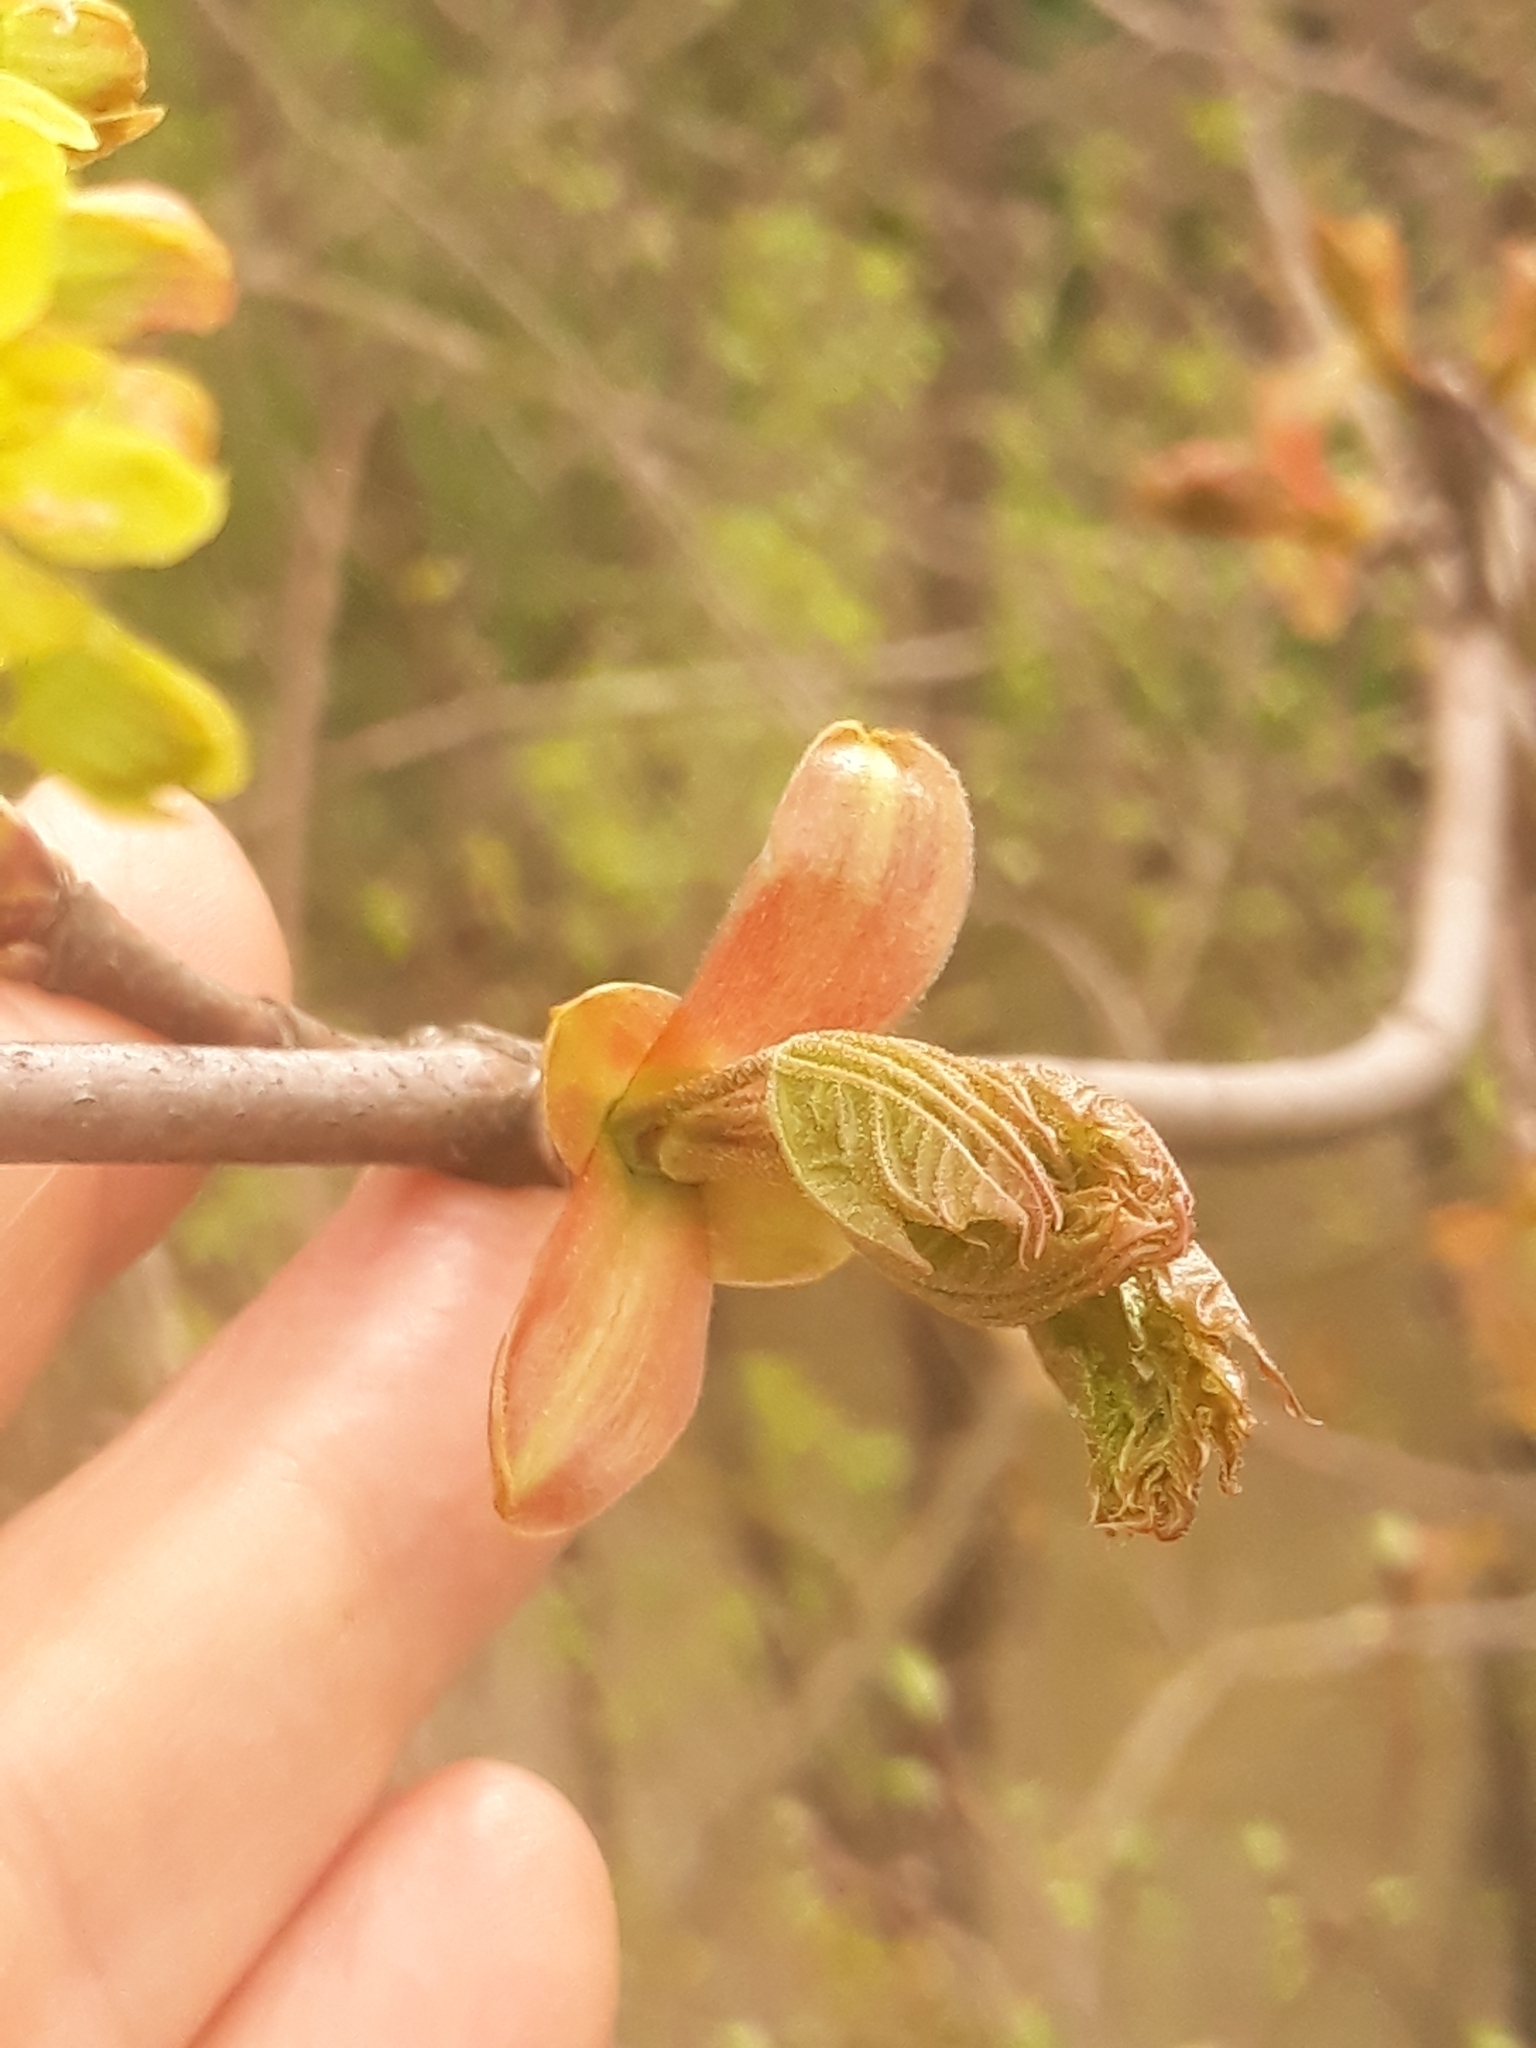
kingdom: Plantae
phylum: Tracheophyta
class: Magnoliopsida
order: Sapindales
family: Sapindaceae
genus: Acer
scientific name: Acer platanoides
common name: Norway maple
